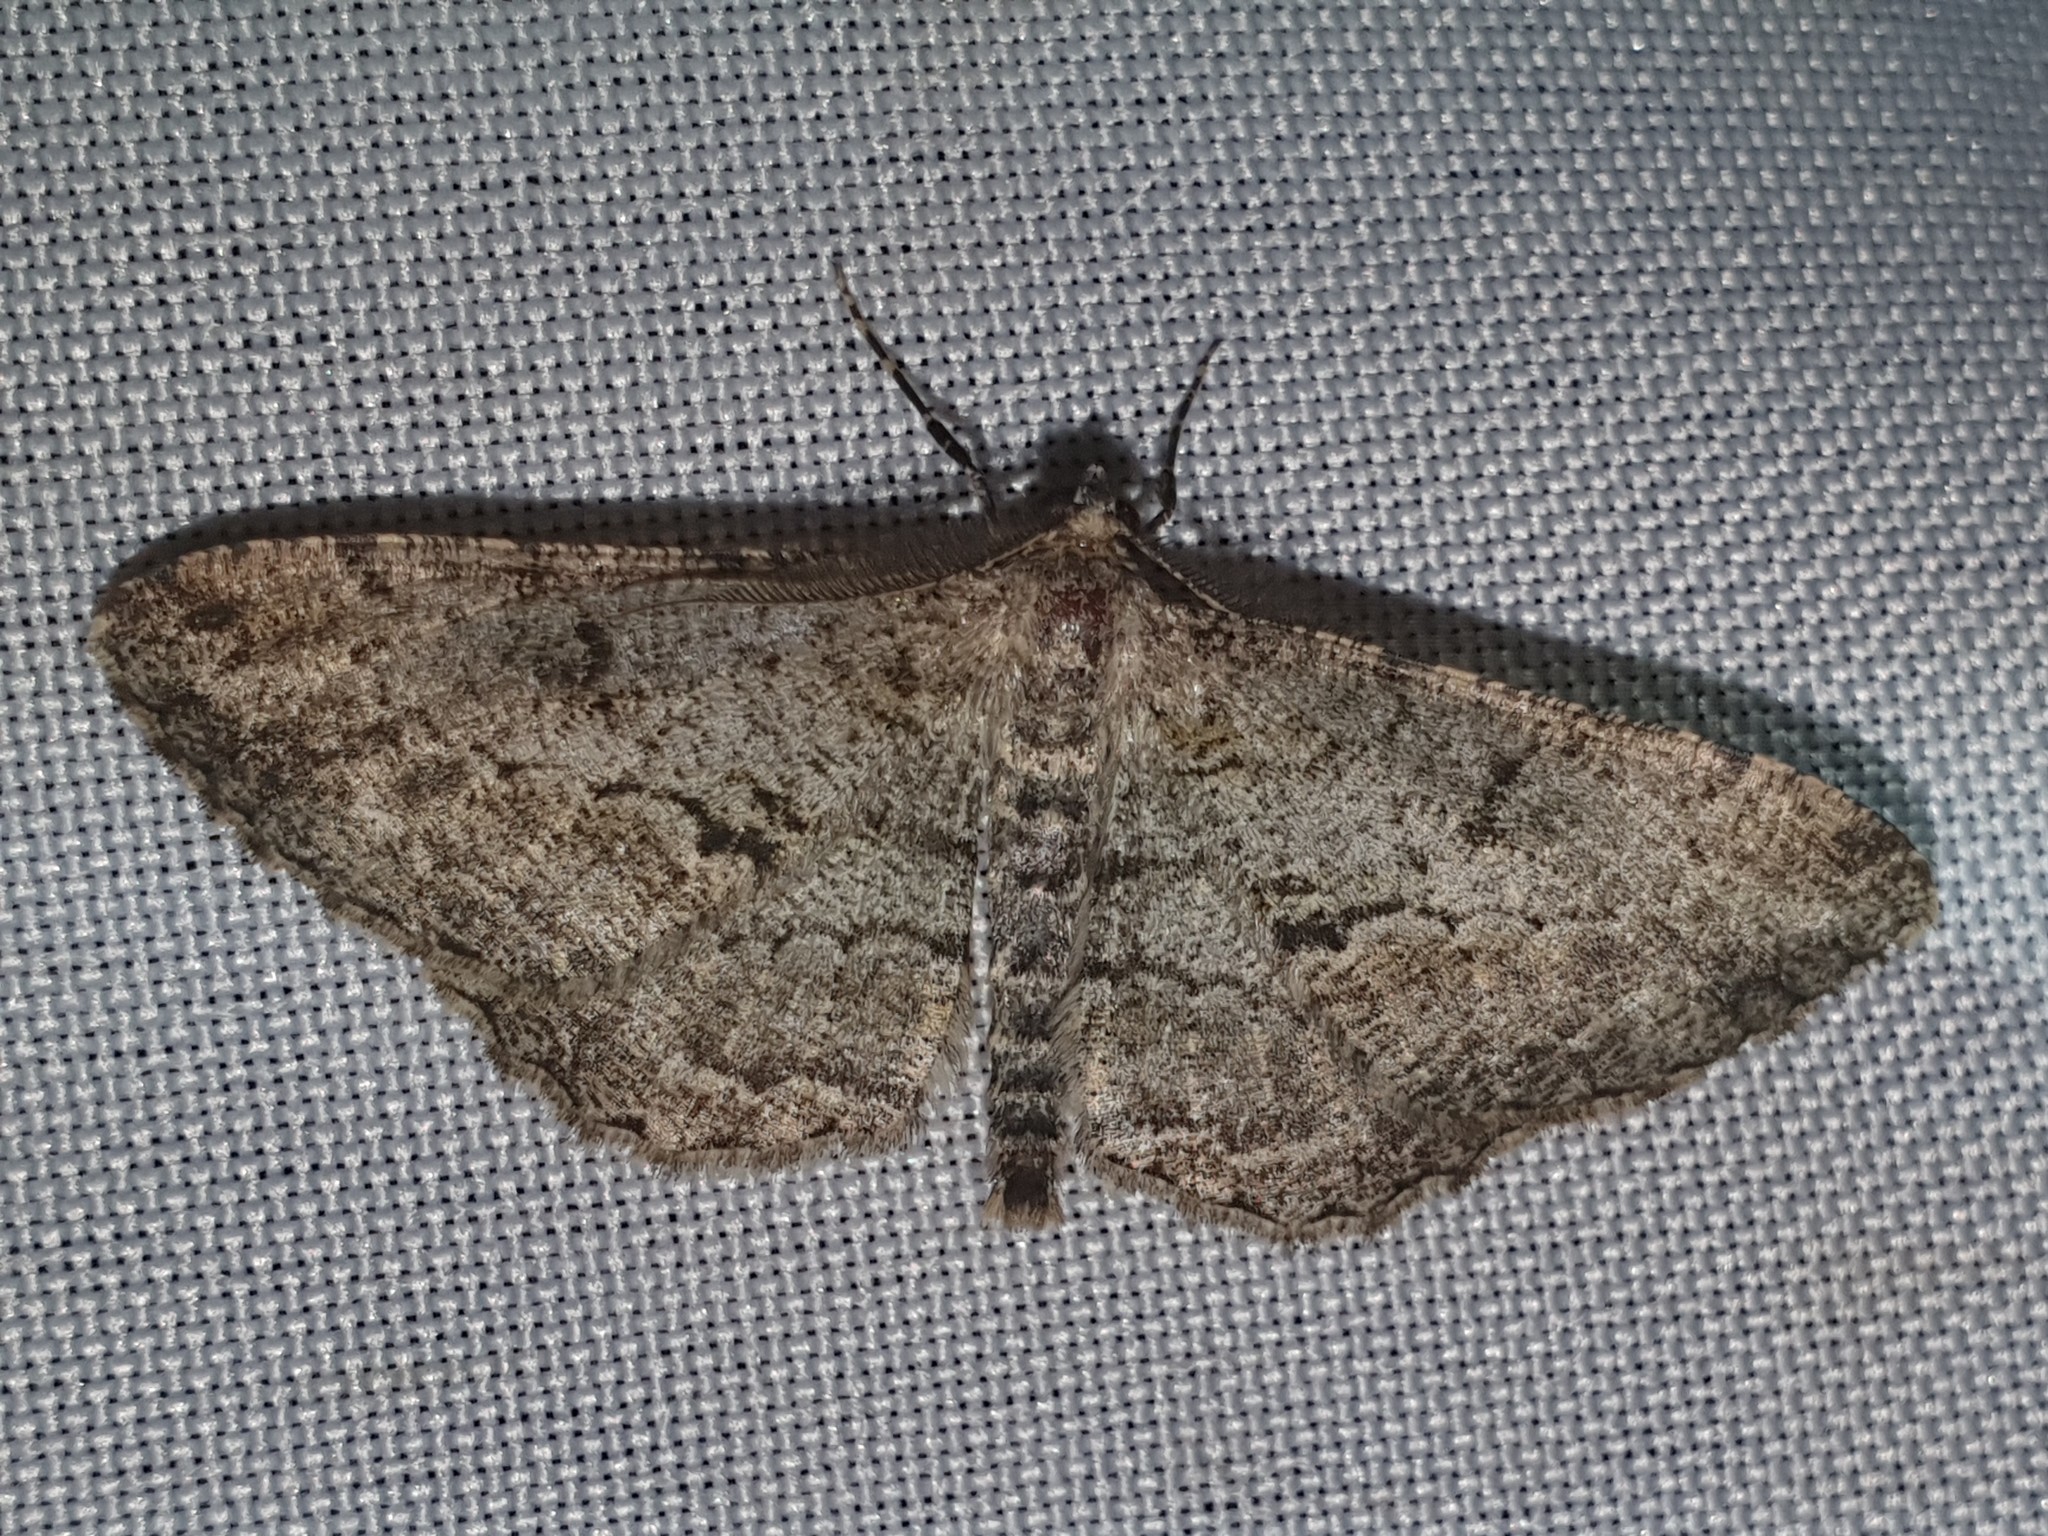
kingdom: Animalia
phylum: Arthropoda
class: Insecta
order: Lepidoptera
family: Geometridae
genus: Peribatodes
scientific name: Peribatodes rhomboidaria
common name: Willow beauty
